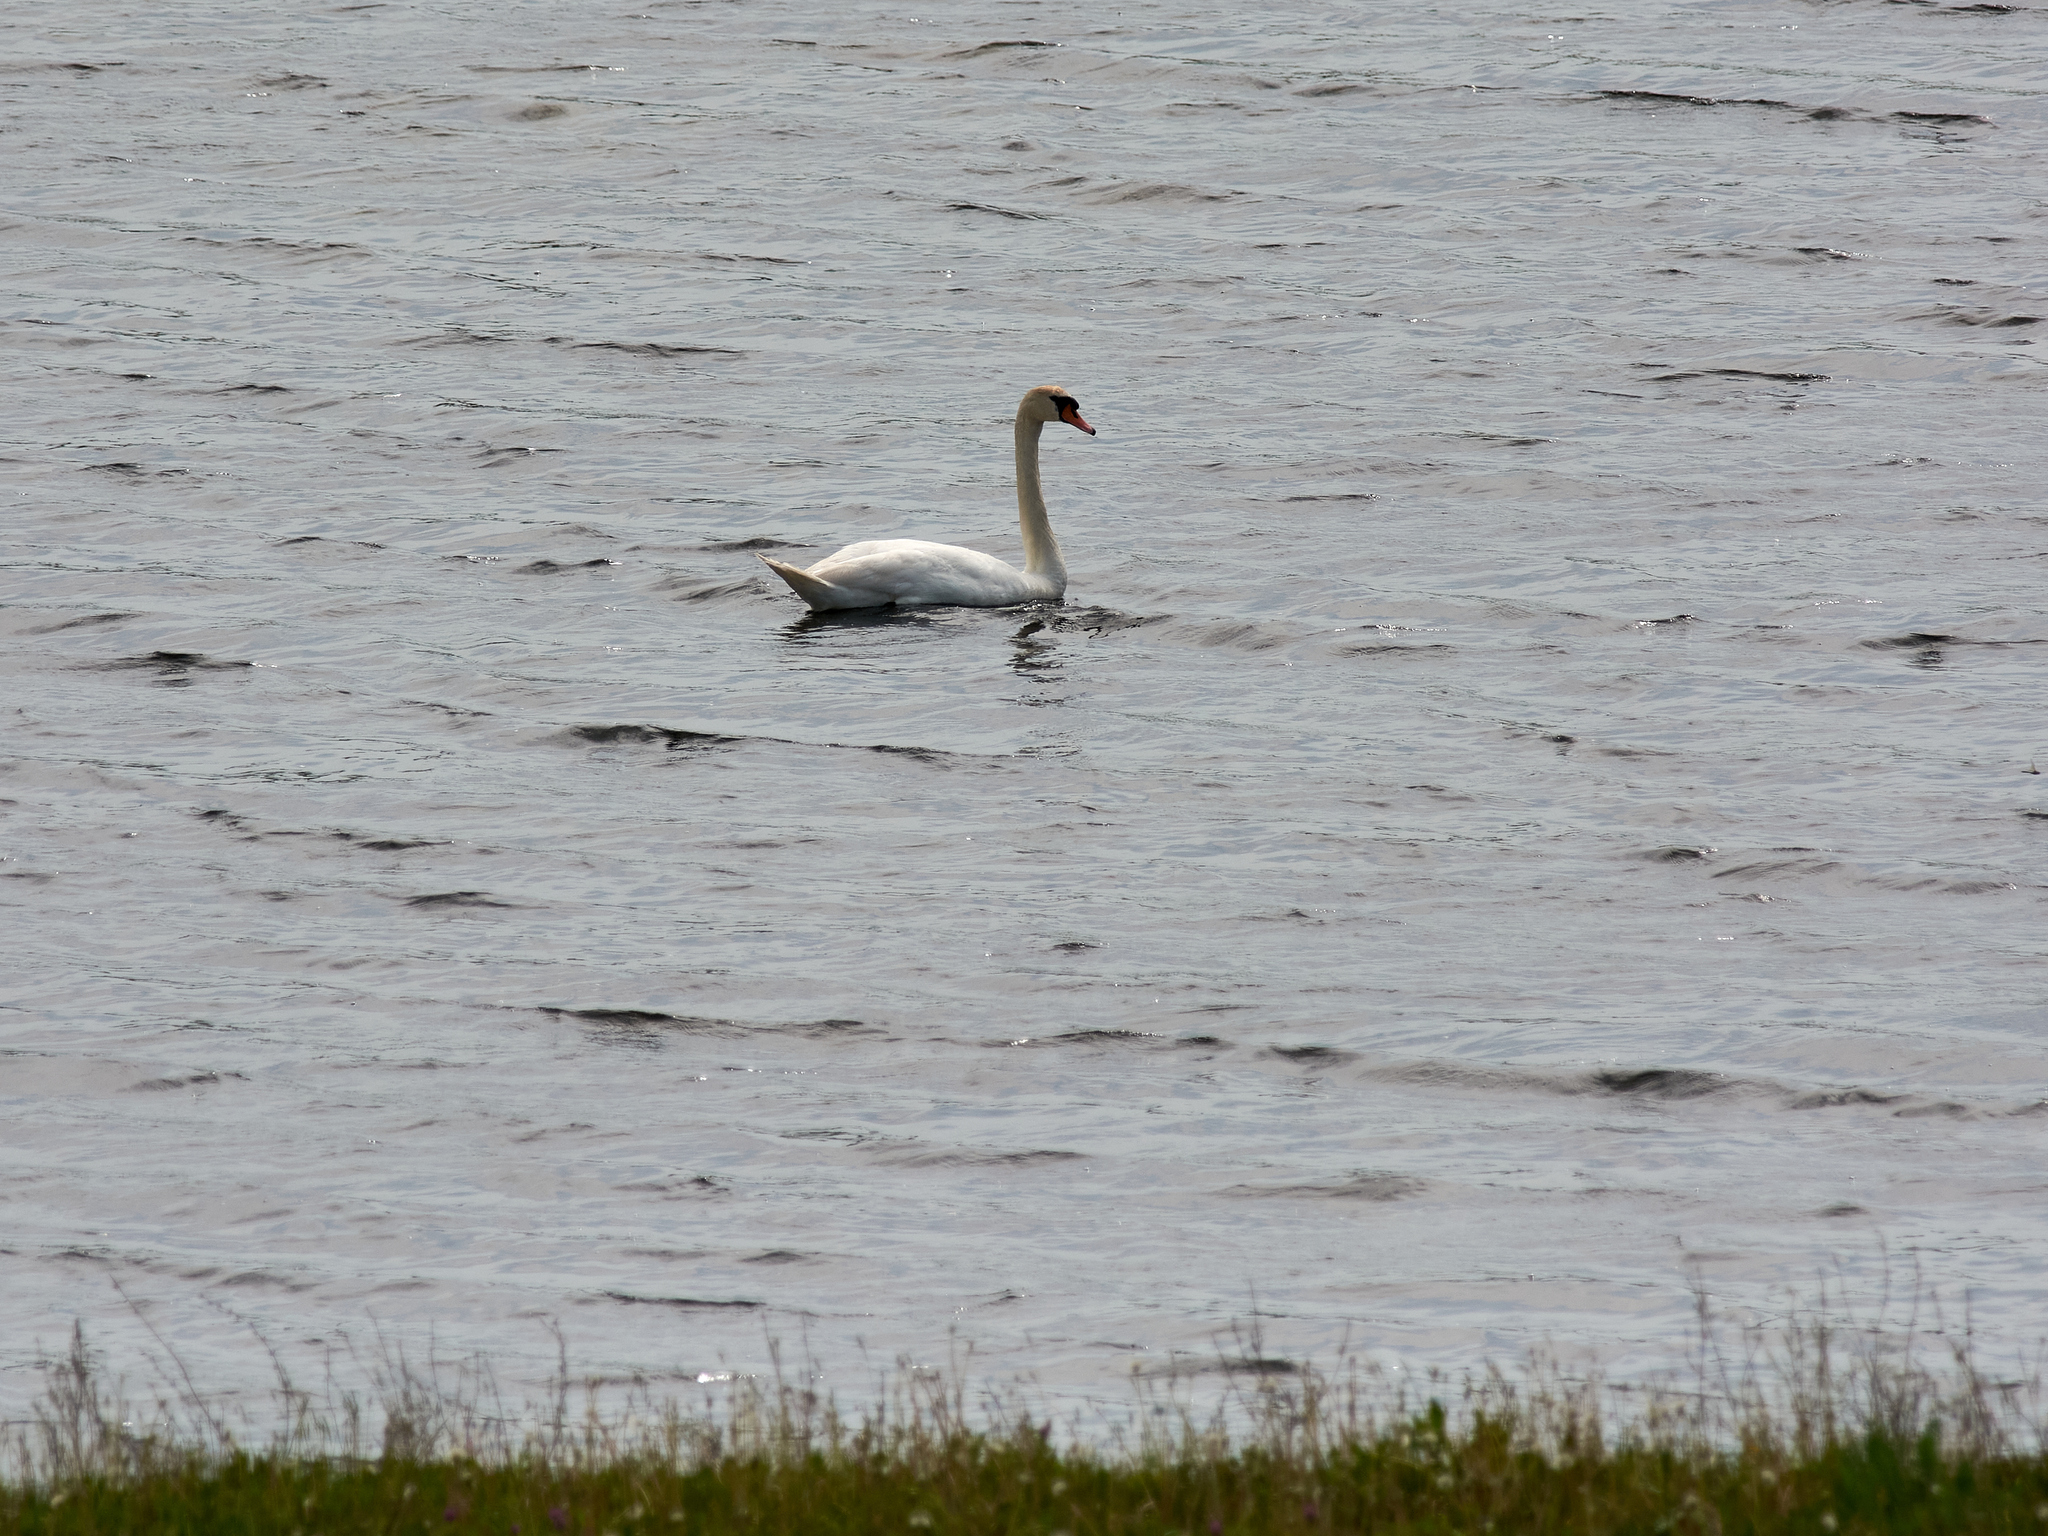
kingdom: Animalia
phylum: Chordata
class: Aves
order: Anseriformes
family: Anatidae
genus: Cygnus
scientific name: Cygnus olor
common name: Mute swan
